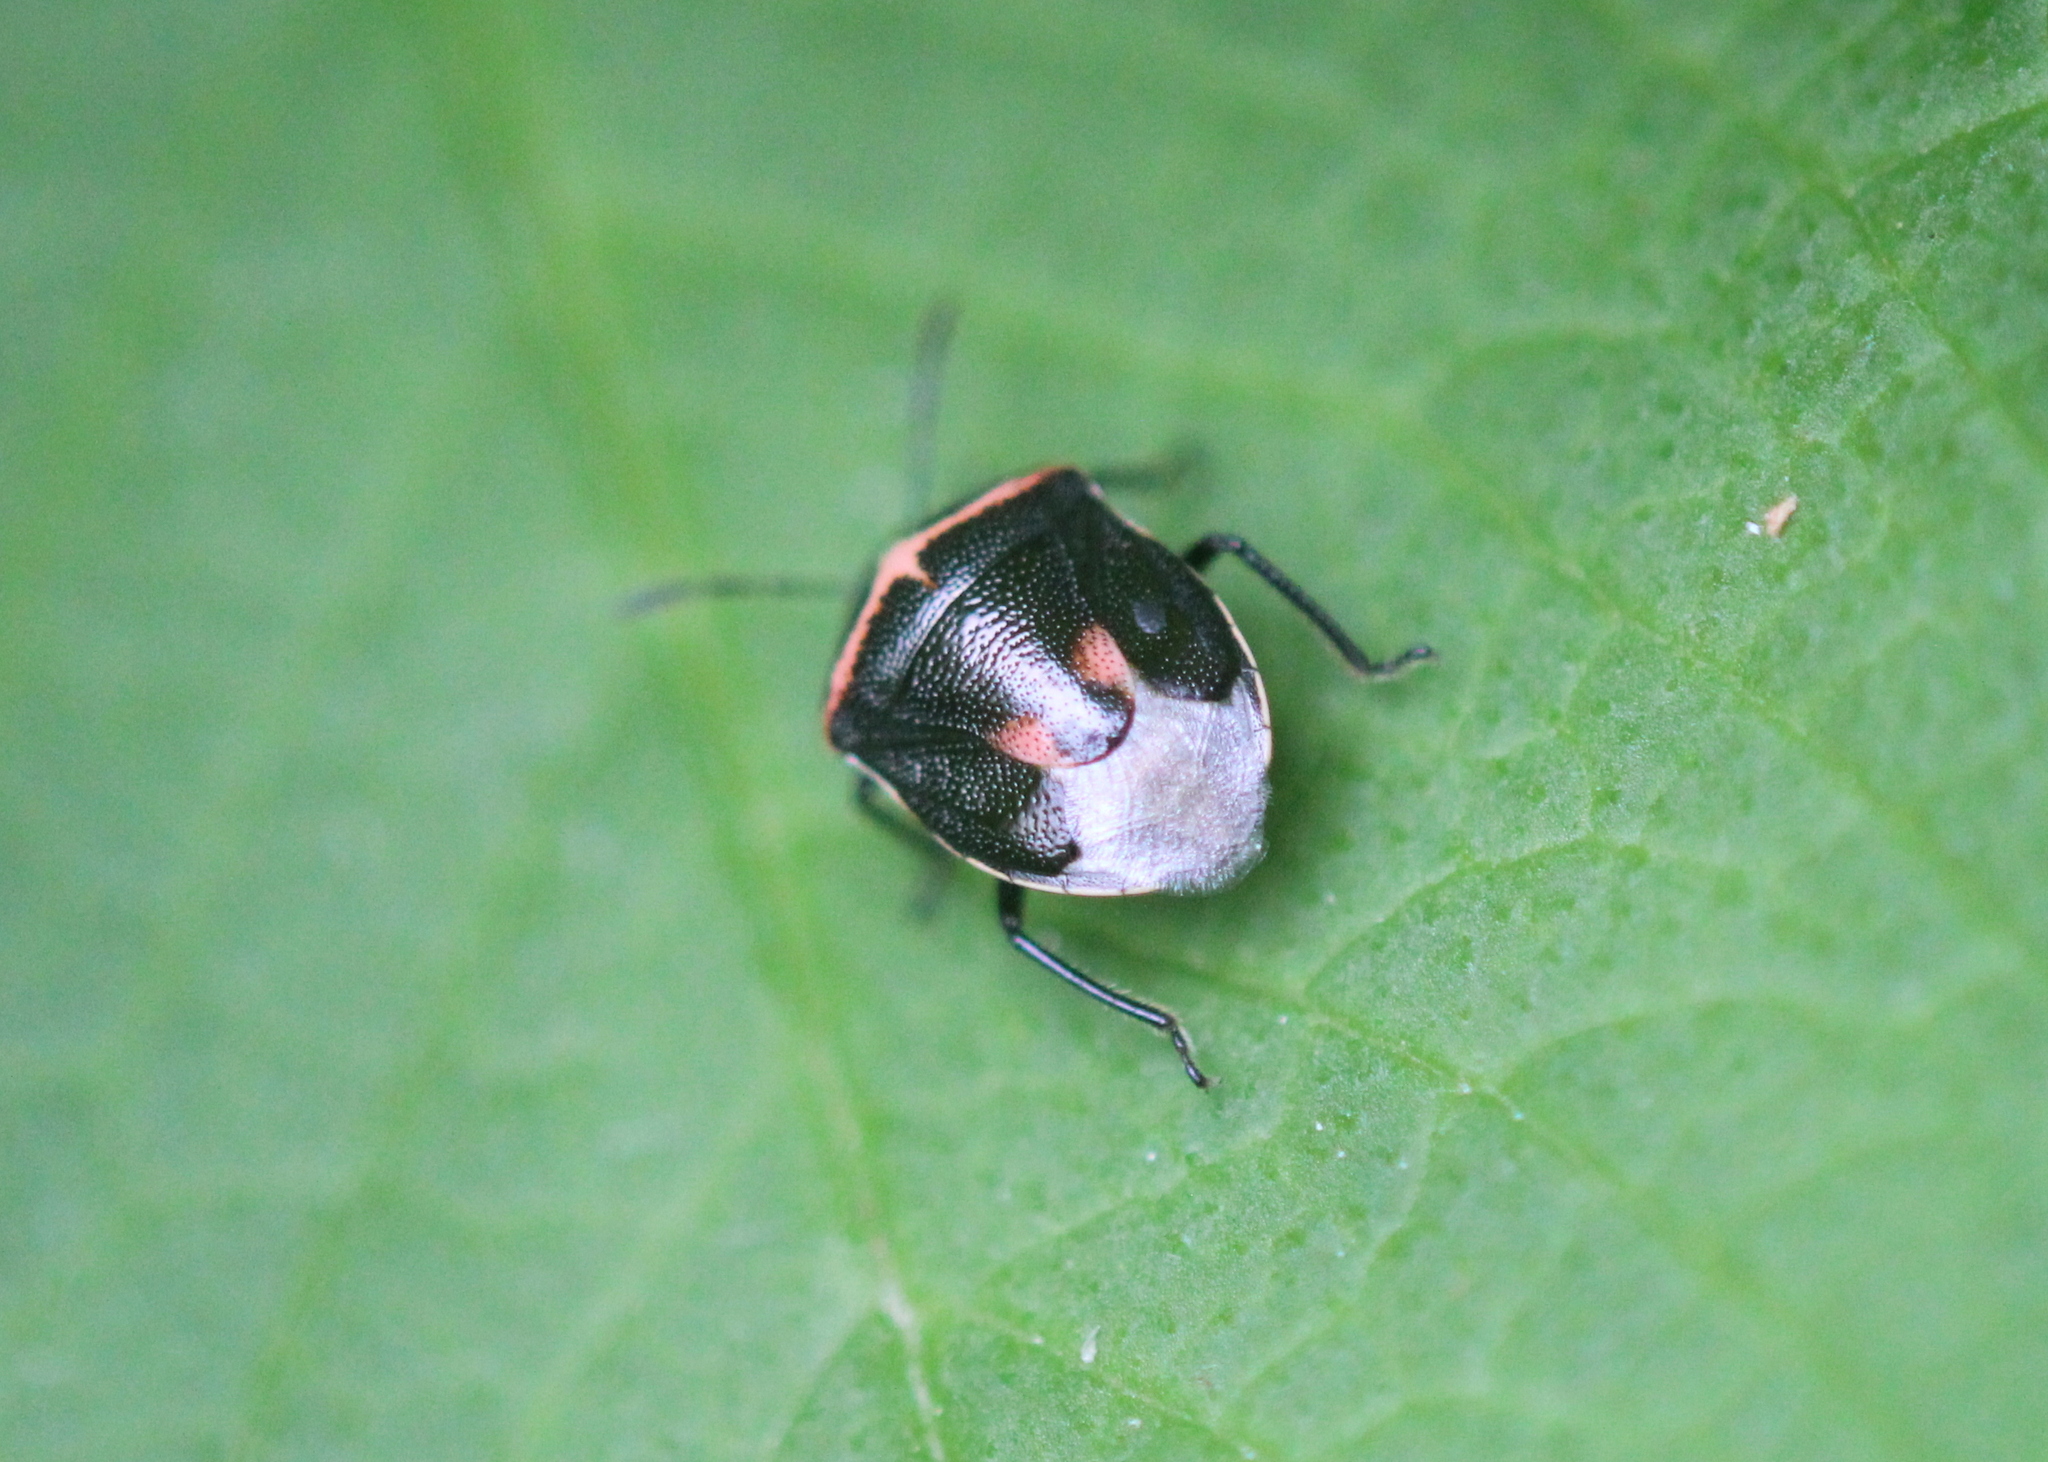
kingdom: Animalia
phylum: Arthropoda
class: Insecta
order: Hemiptera
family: Pentatomidae
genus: Cosmopepla
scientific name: Cosmopepla lintneriana
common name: Twice-stabbed stink bug
